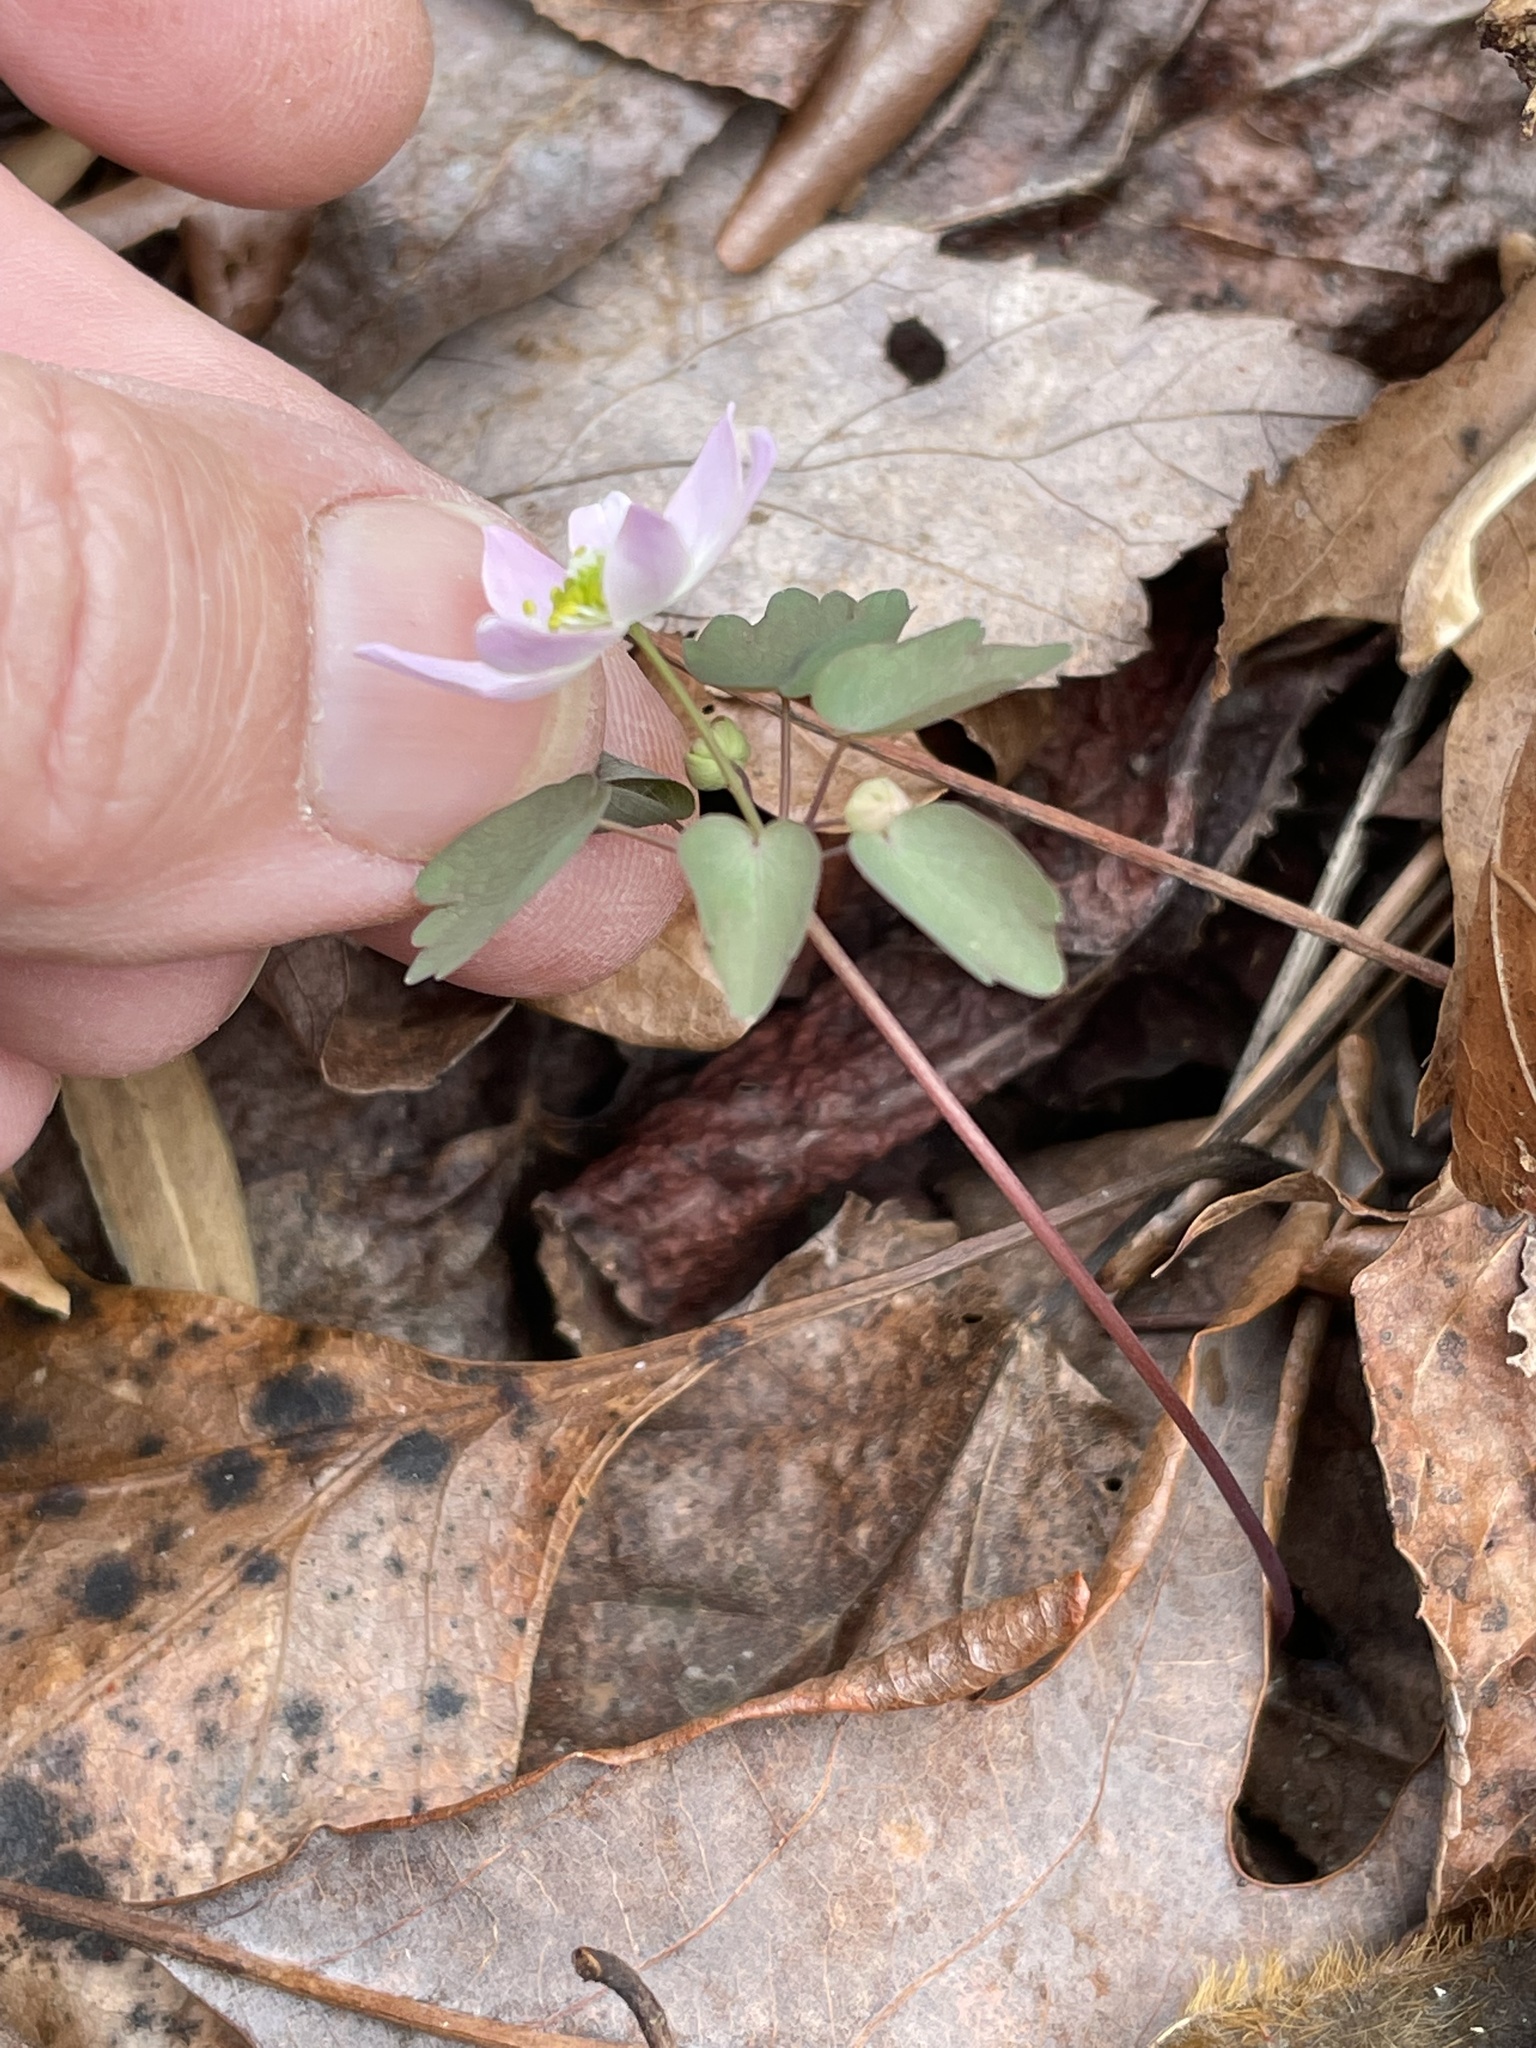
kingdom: Plantae
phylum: Tracheophyta
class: Magnoliopsida
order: Ranunculales
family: Ranunculaceae
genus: Thalictrum
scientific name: Thalictrum thalictroides
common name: Rue-anemone
